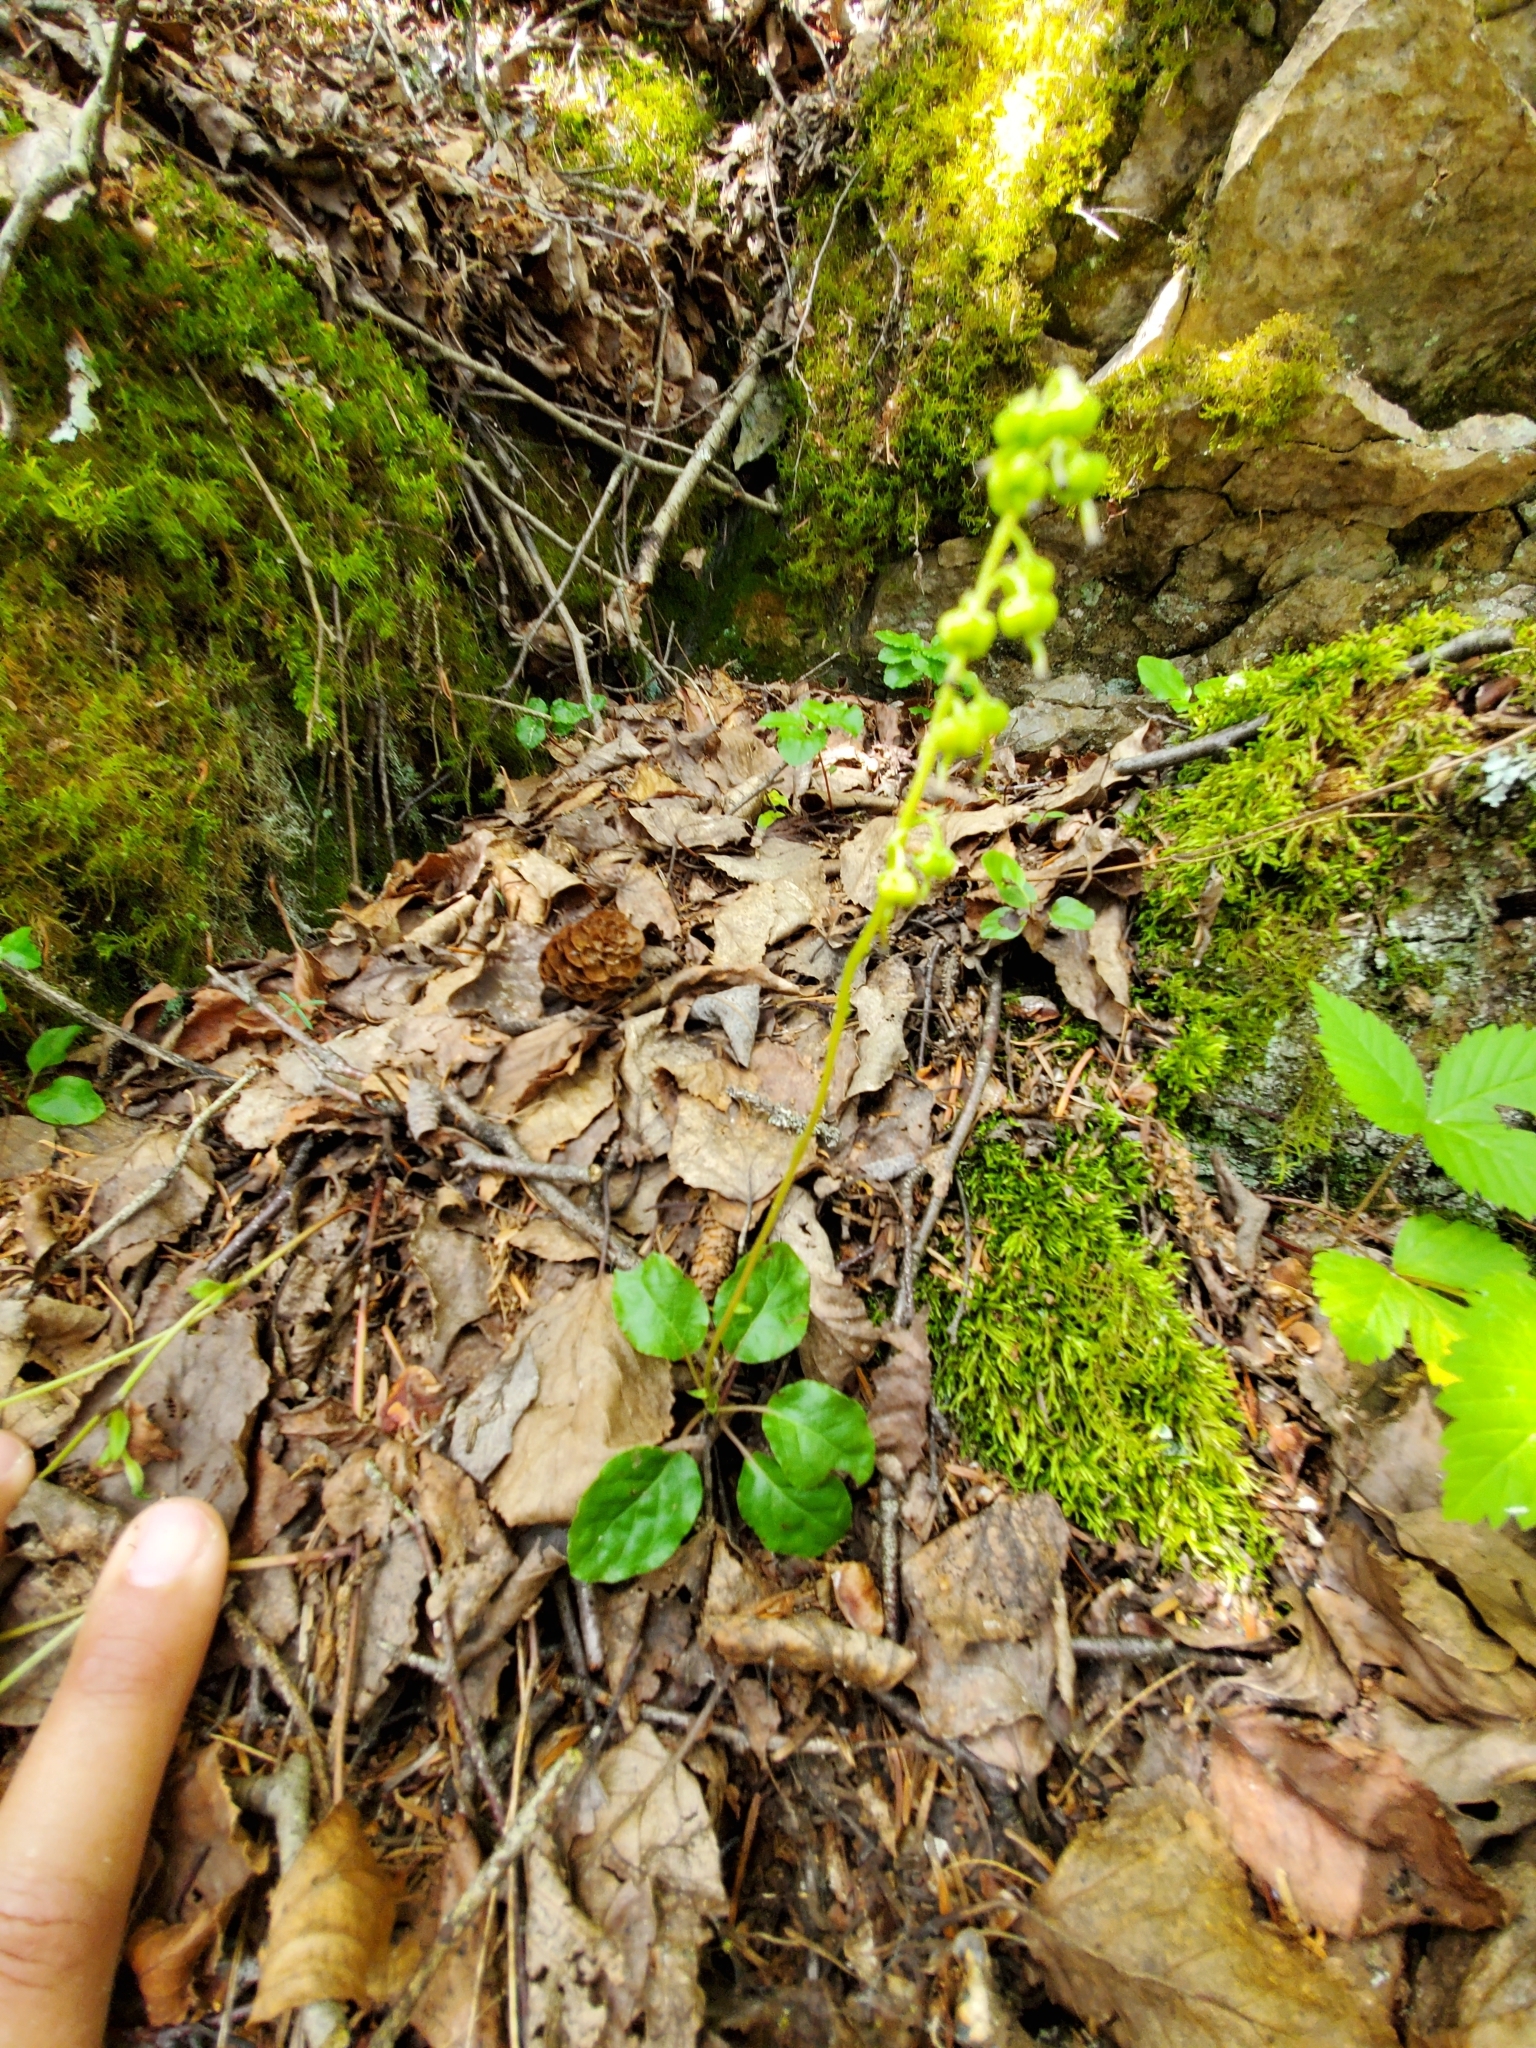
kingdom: Plantae
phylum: Tracheophyta
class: Magnoliopsida
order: Ericales
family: Ericaceae
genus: Orthilia
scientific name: Orthilia secunda
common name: One-sided orthilia
